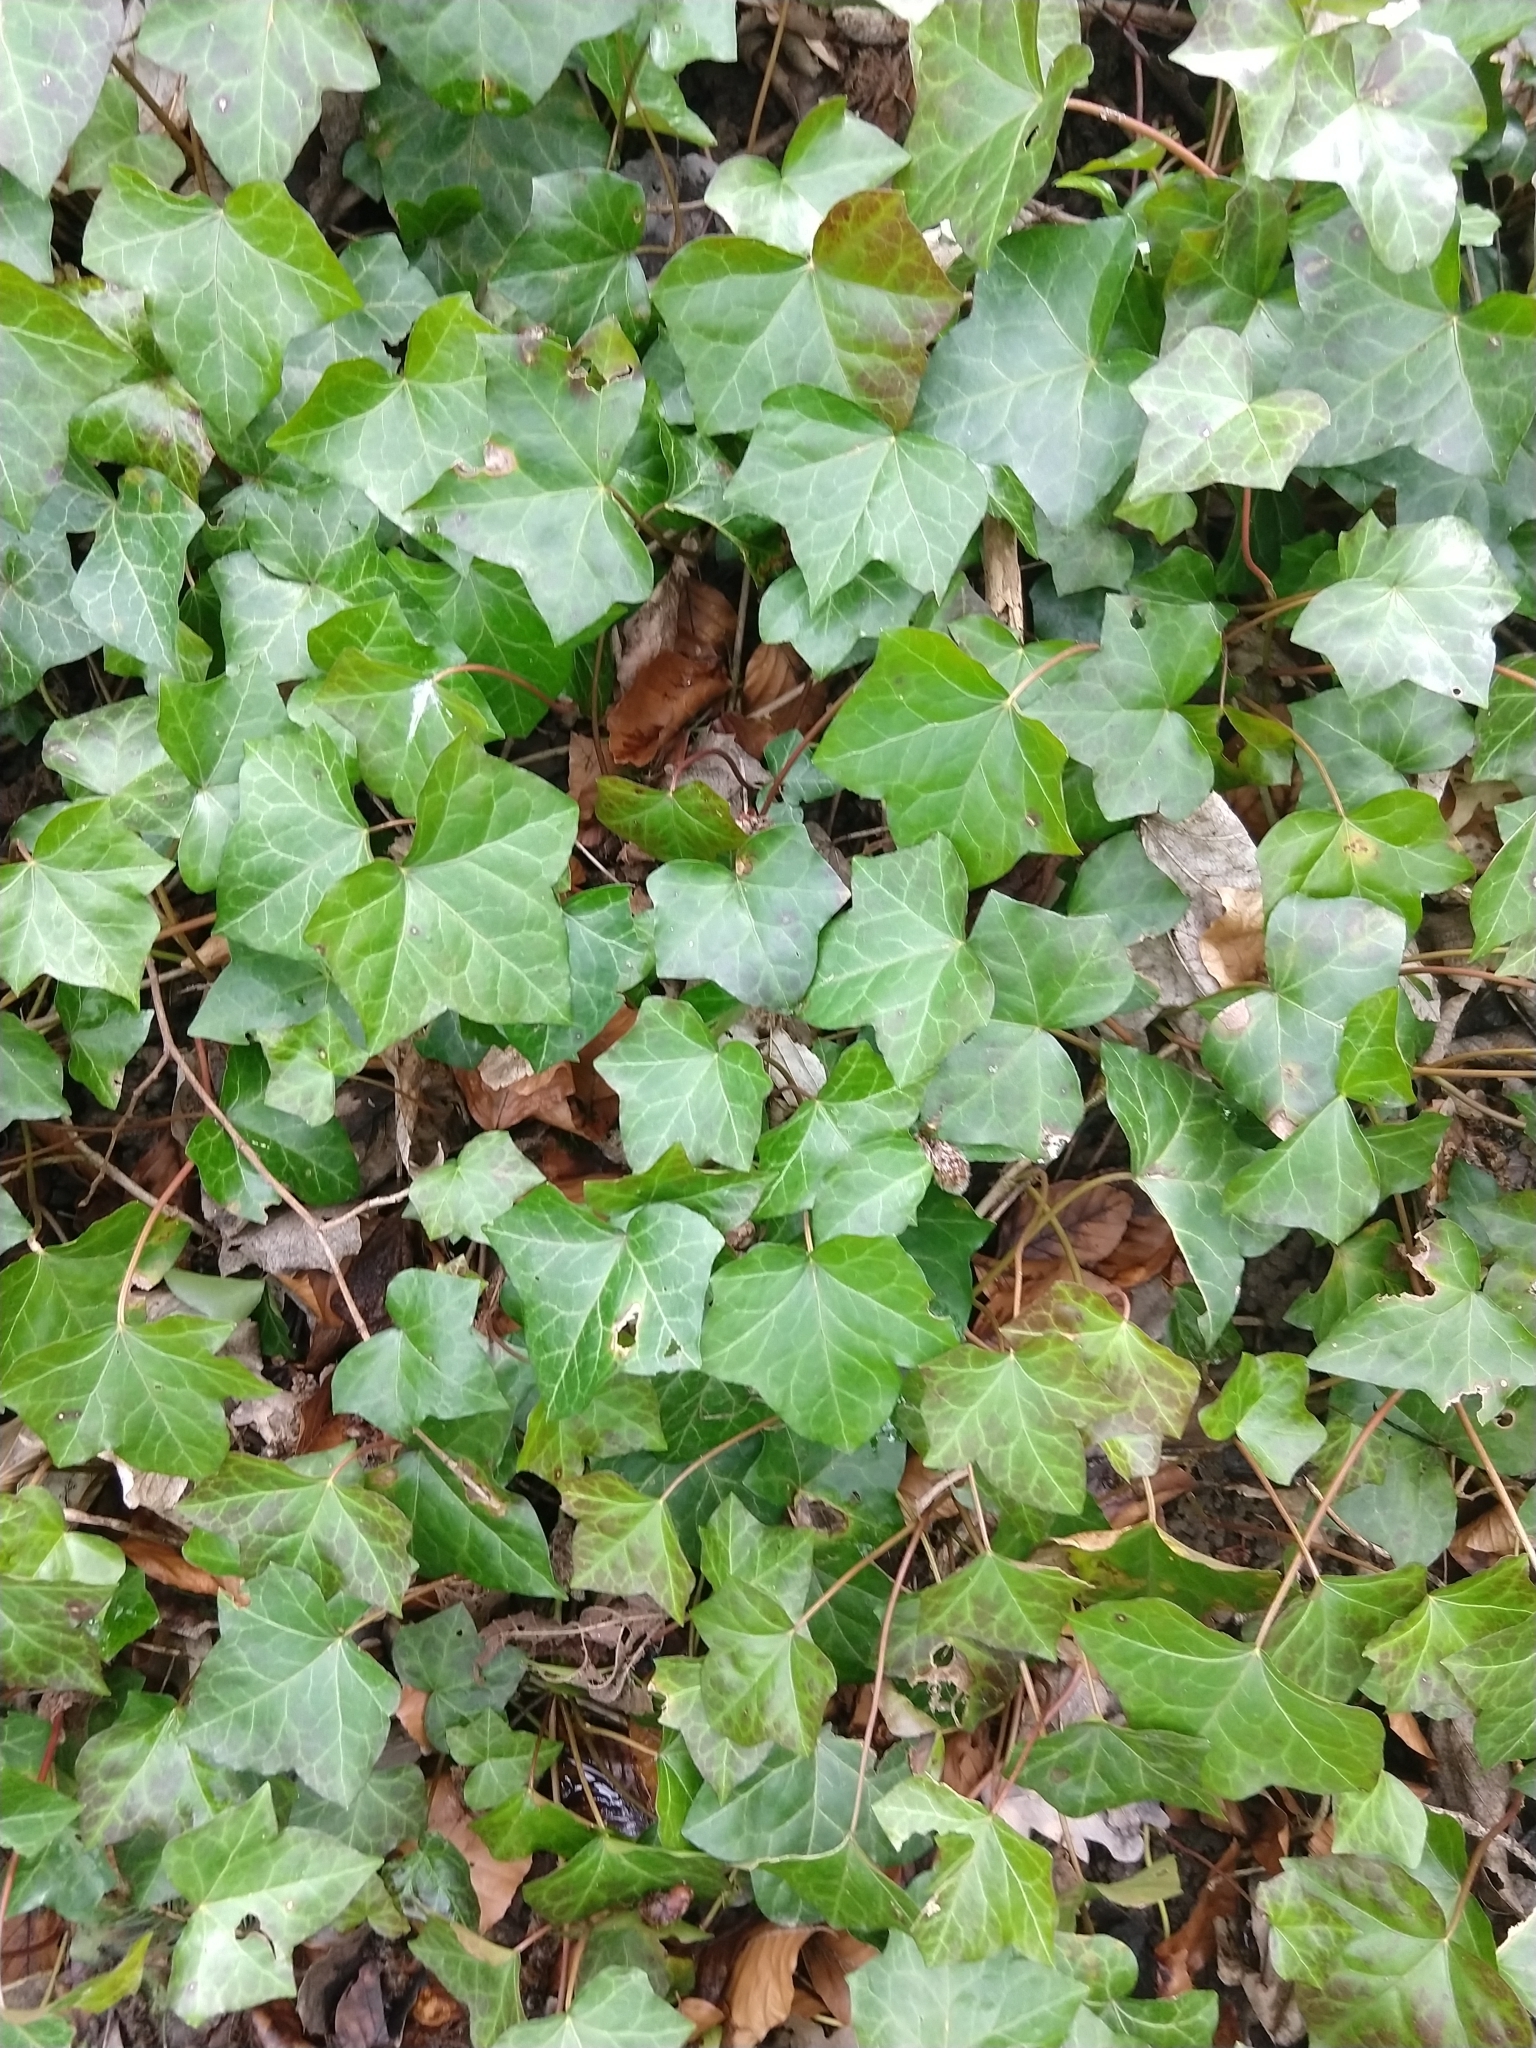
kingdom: Plantae
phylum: Tracheophyta
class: Magnoliopsida
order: Apiales
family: Araliaceae
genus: Hedera
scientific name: Hedera helix
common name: Ivy
